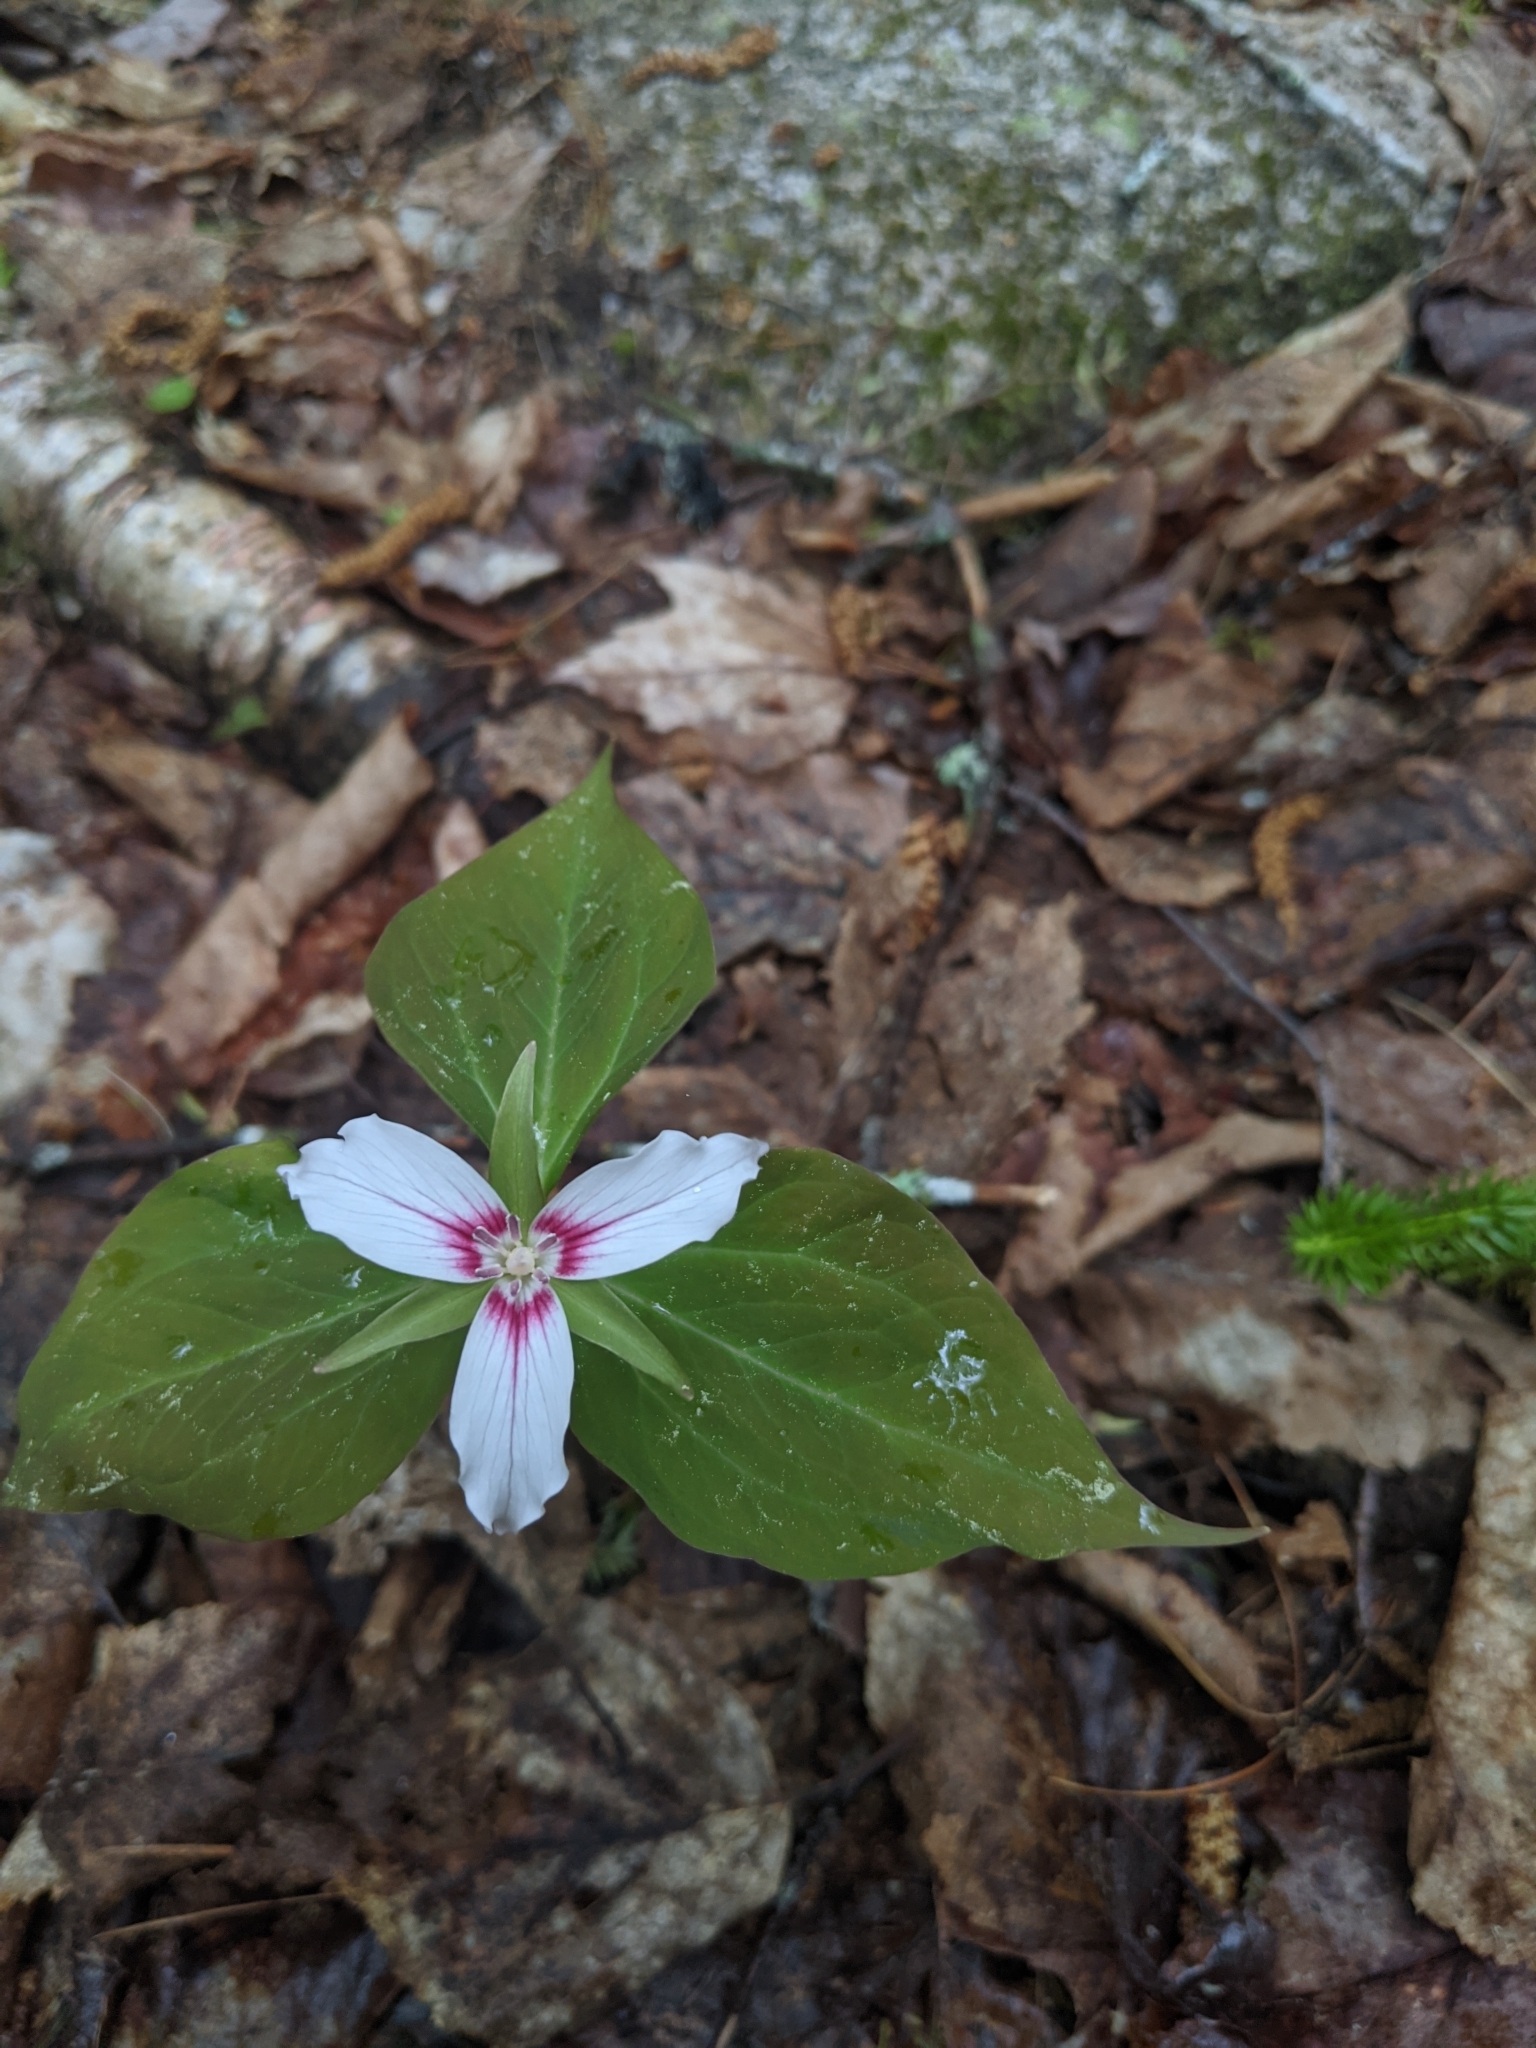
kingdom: Plantae
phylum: Tracheophyta
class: Liliopsida
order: Liliales
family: Melanthiaceae
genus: Trillium
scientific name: Trillium undulatum
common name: Paint trillium
